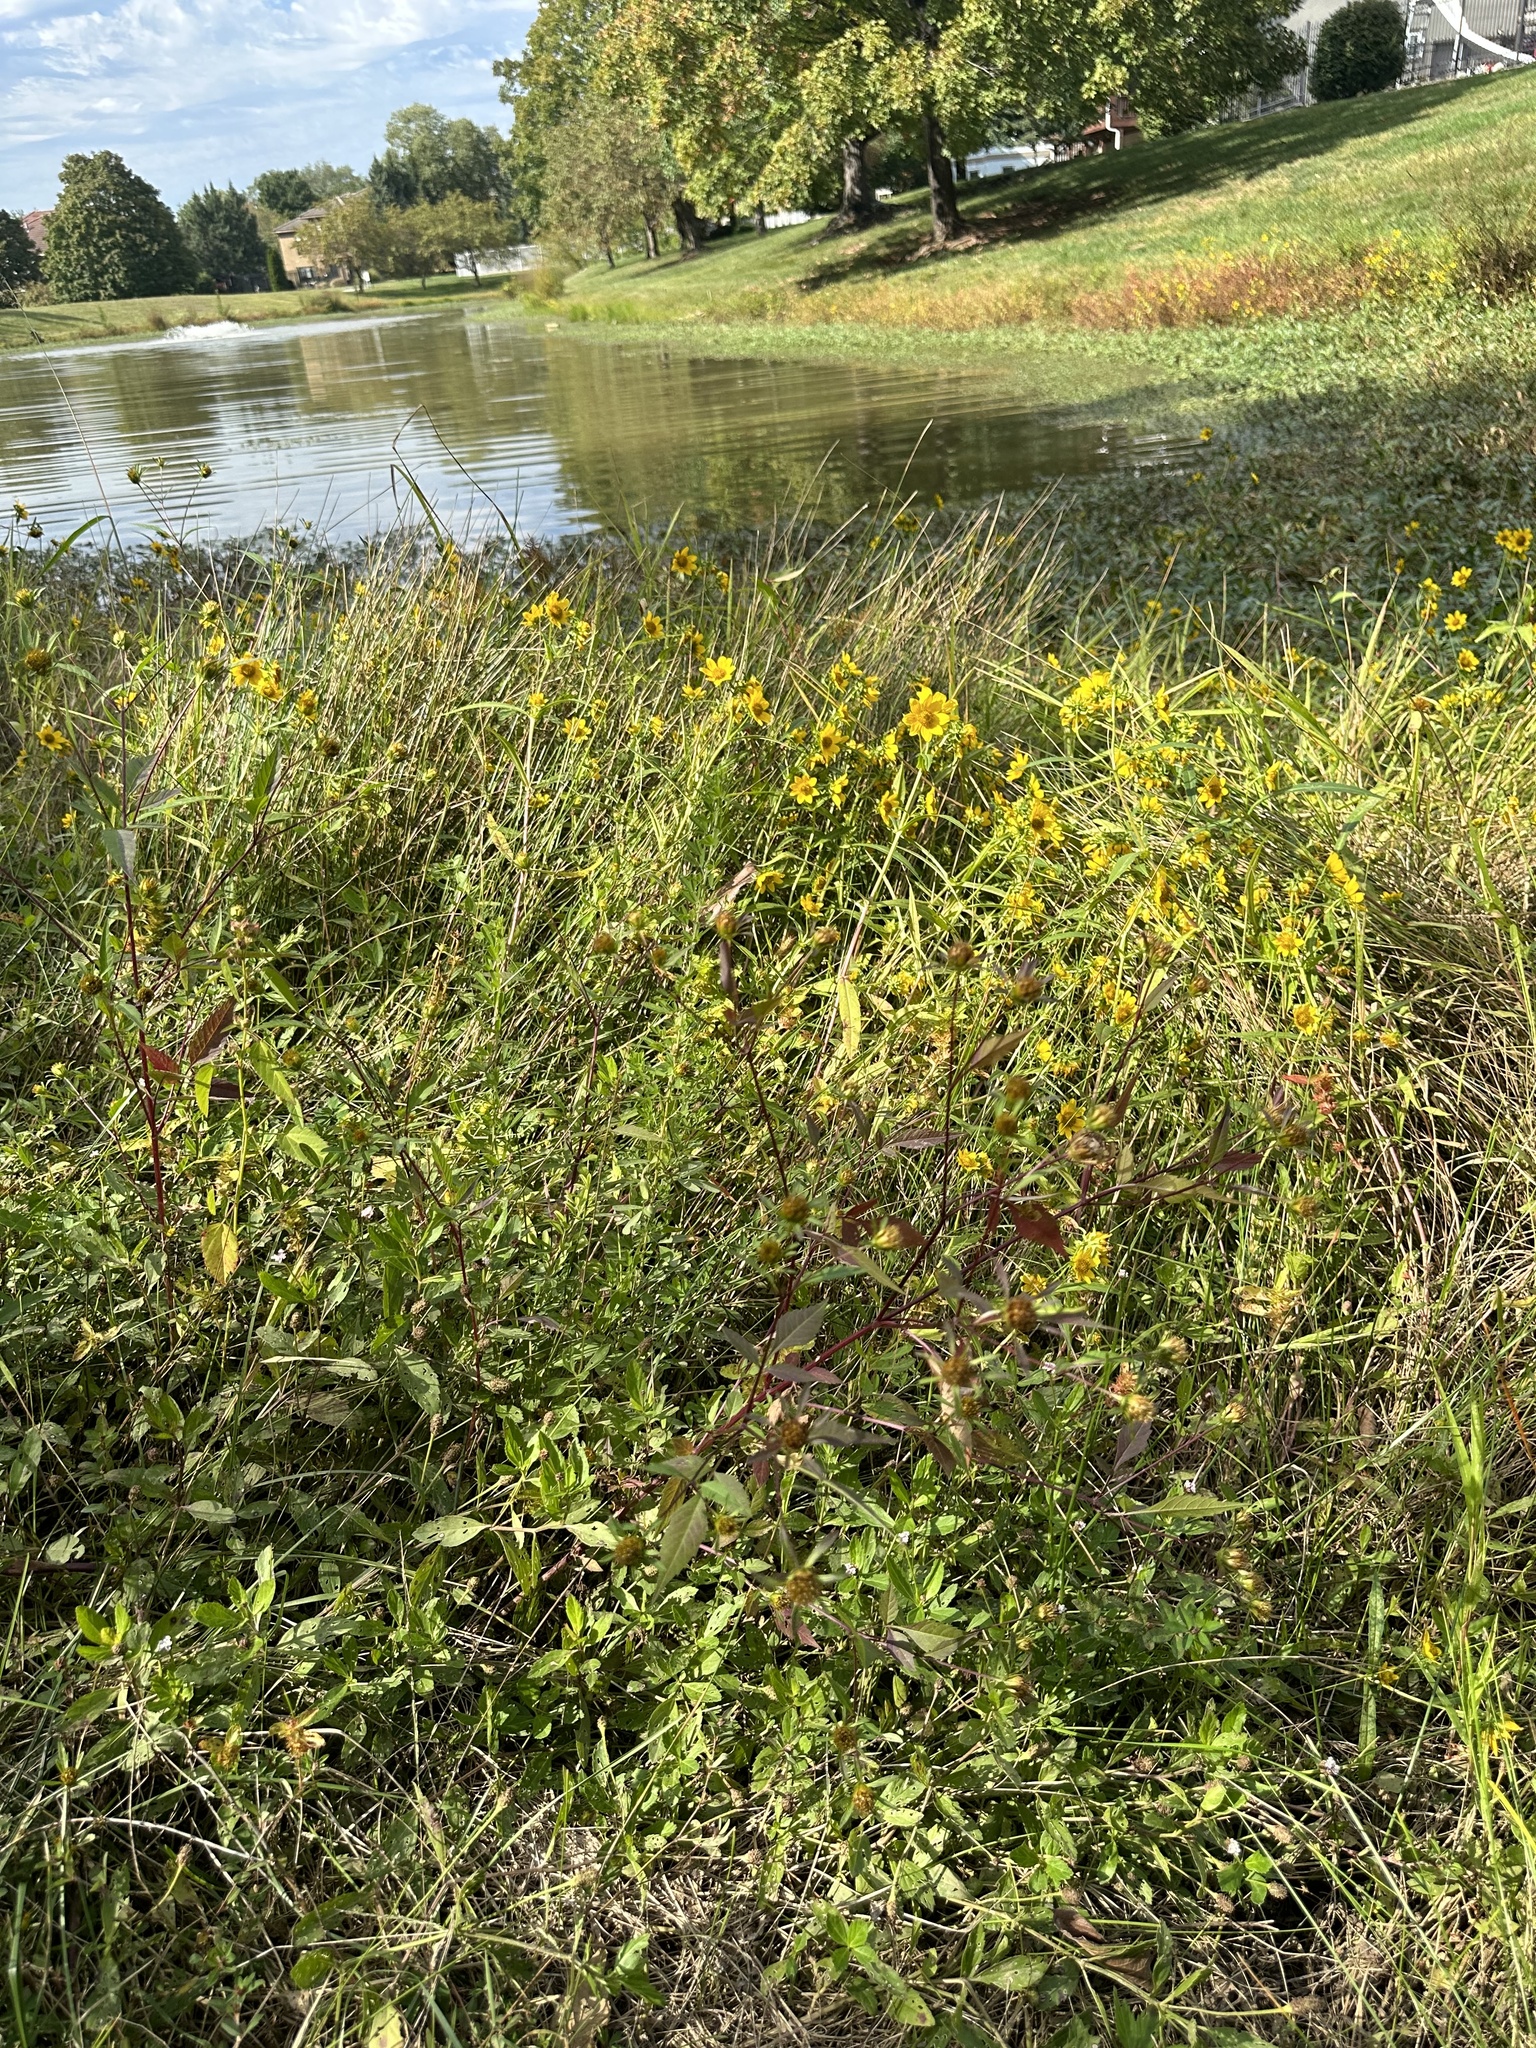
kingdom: Plantae
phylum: Tracheophyta
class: Magnoliopsida
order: Asterales
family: Asteraceae
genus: Bidens
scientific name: Bidens frondosa
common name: Beggarticks
